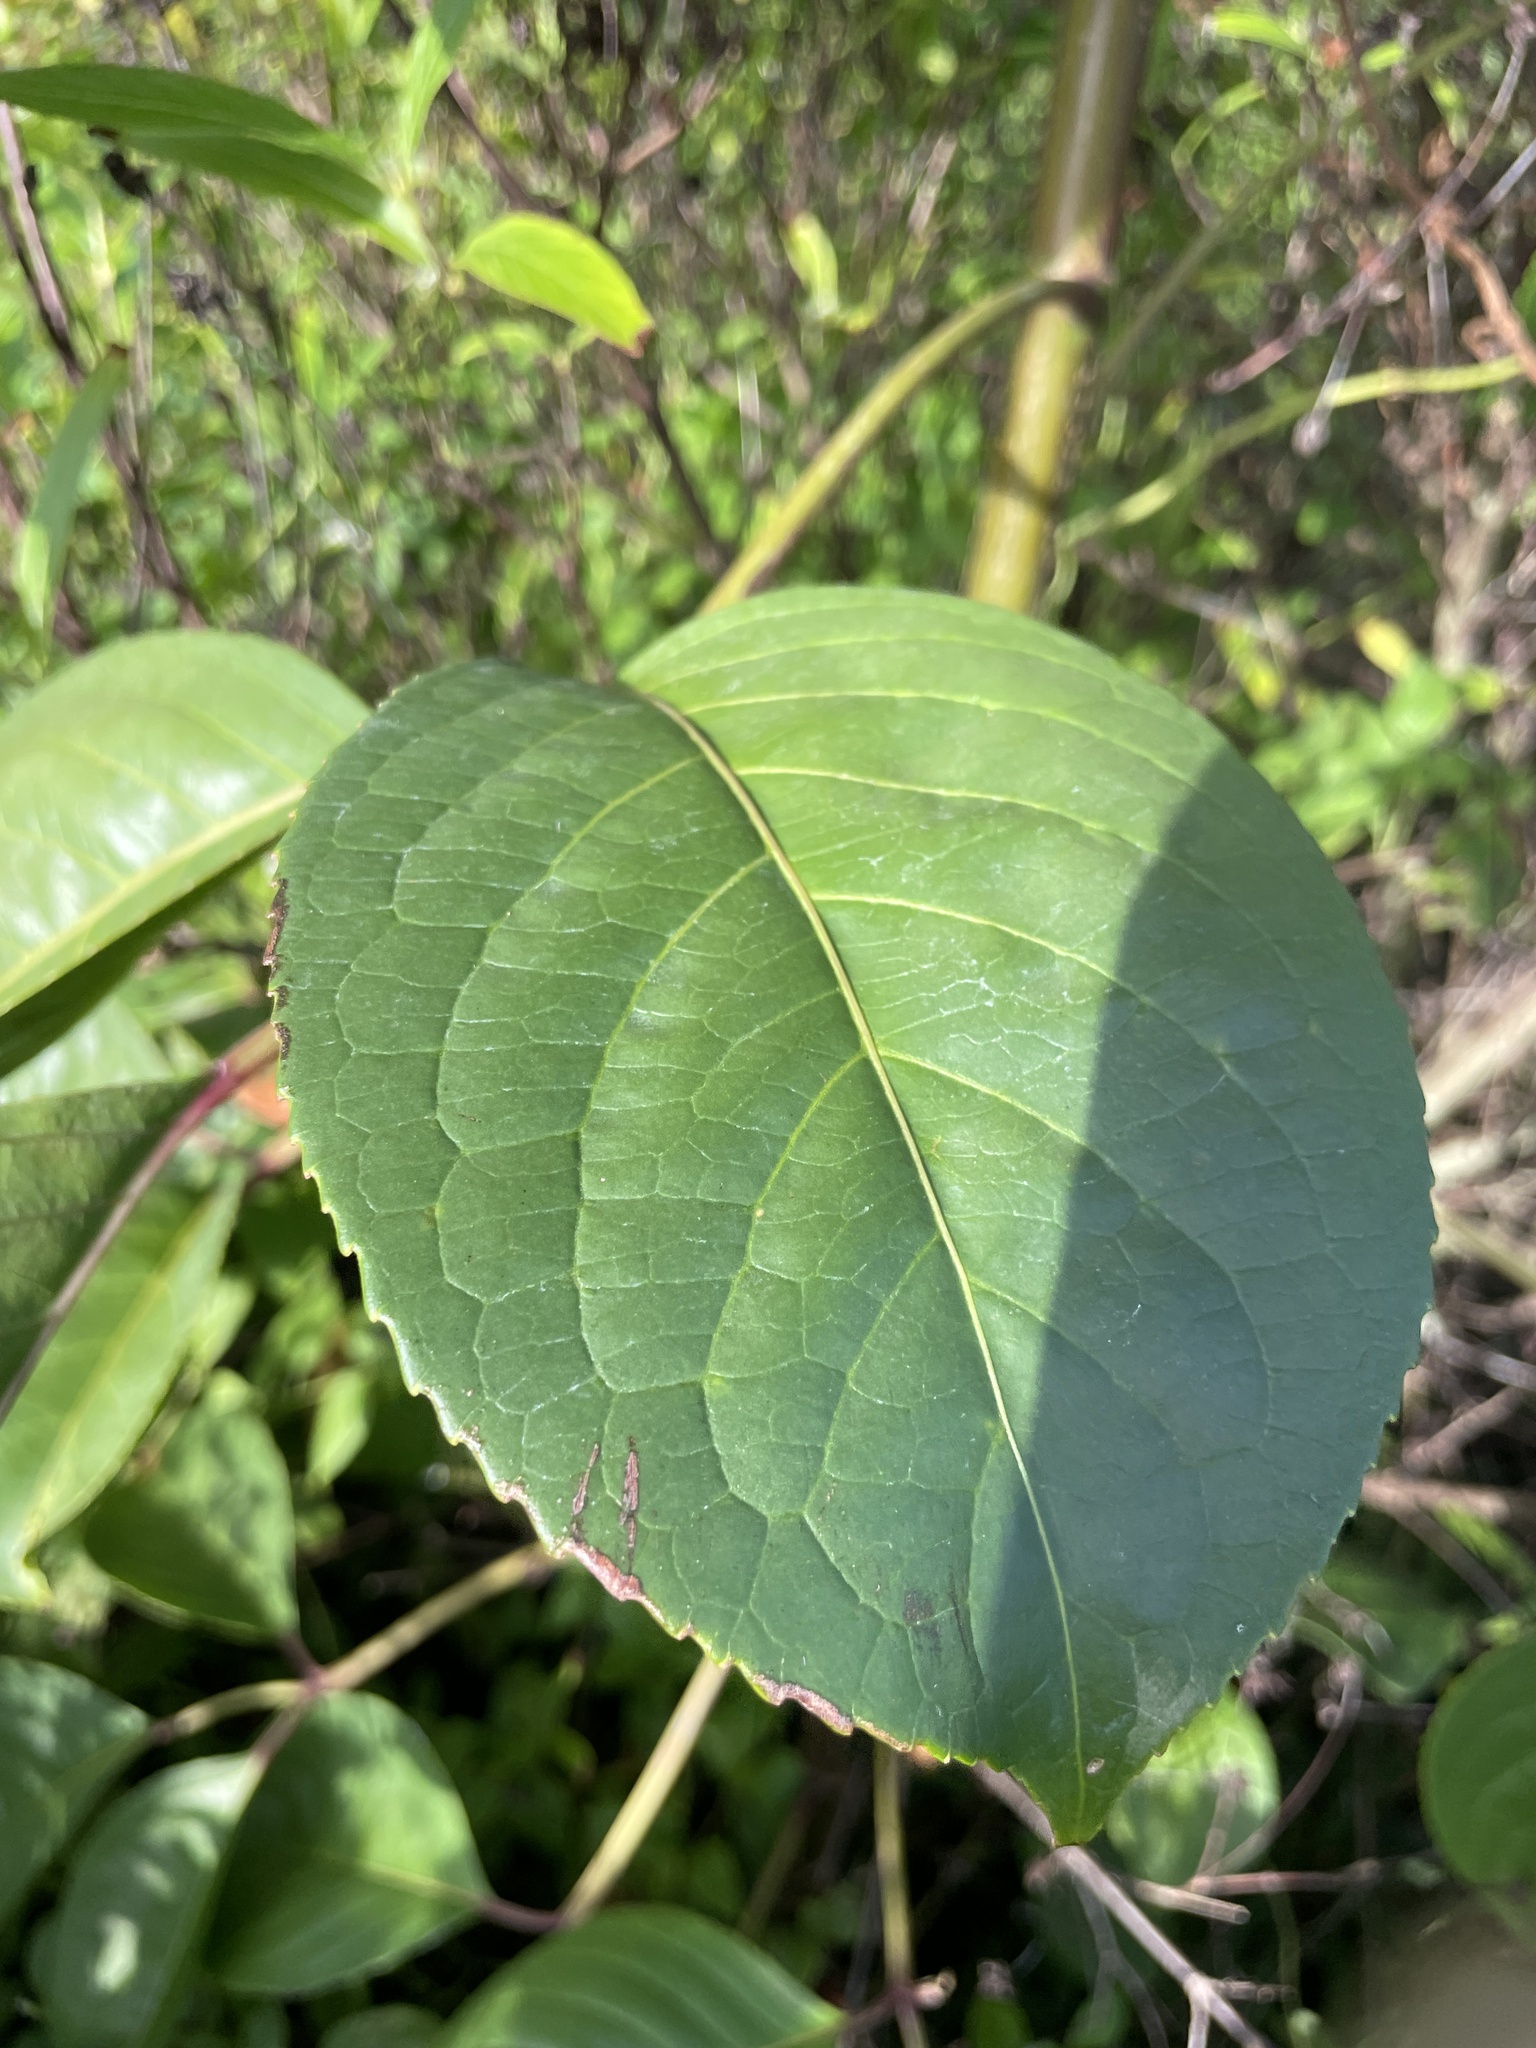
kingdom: Plantae
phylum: Tracheophyta
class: Magnoliopsida
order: Malpighiales
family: Phyllanthaceae
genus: Bischofia
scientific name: Bischofia javanica
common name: Javanese bishopwood
